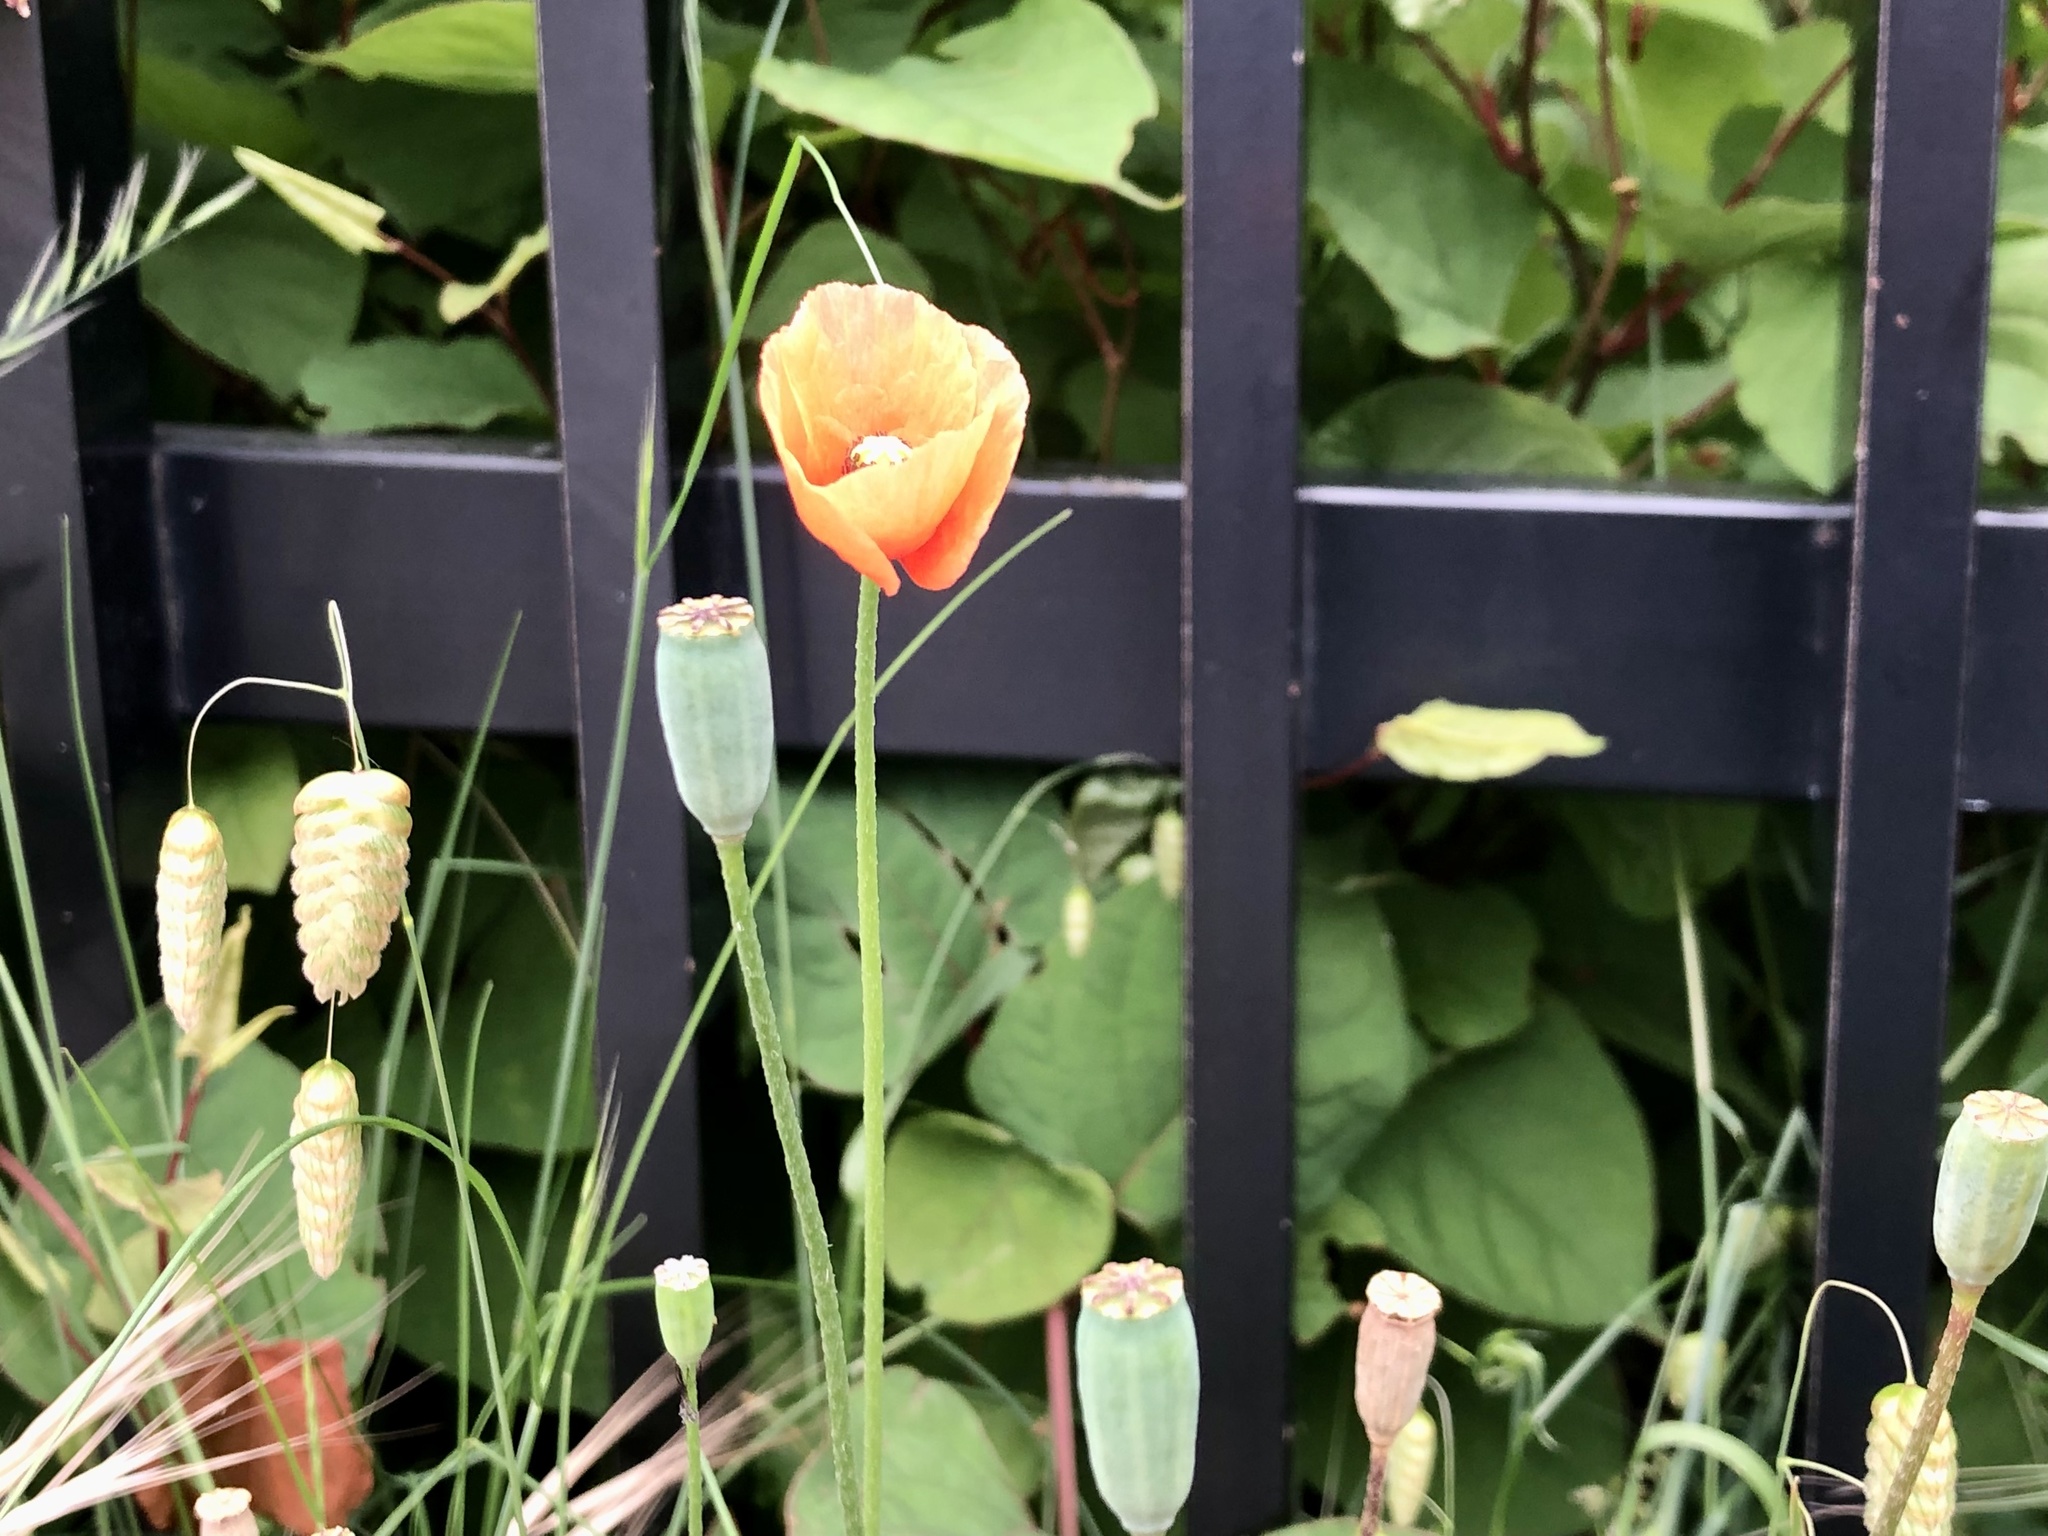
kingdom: Plantae
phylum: Tracheophyta
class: Magnoliopsida
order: Ranunculales
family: Papaveraceae
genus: Papaver
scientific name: Papaver dubium
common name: Long-headed poppy
